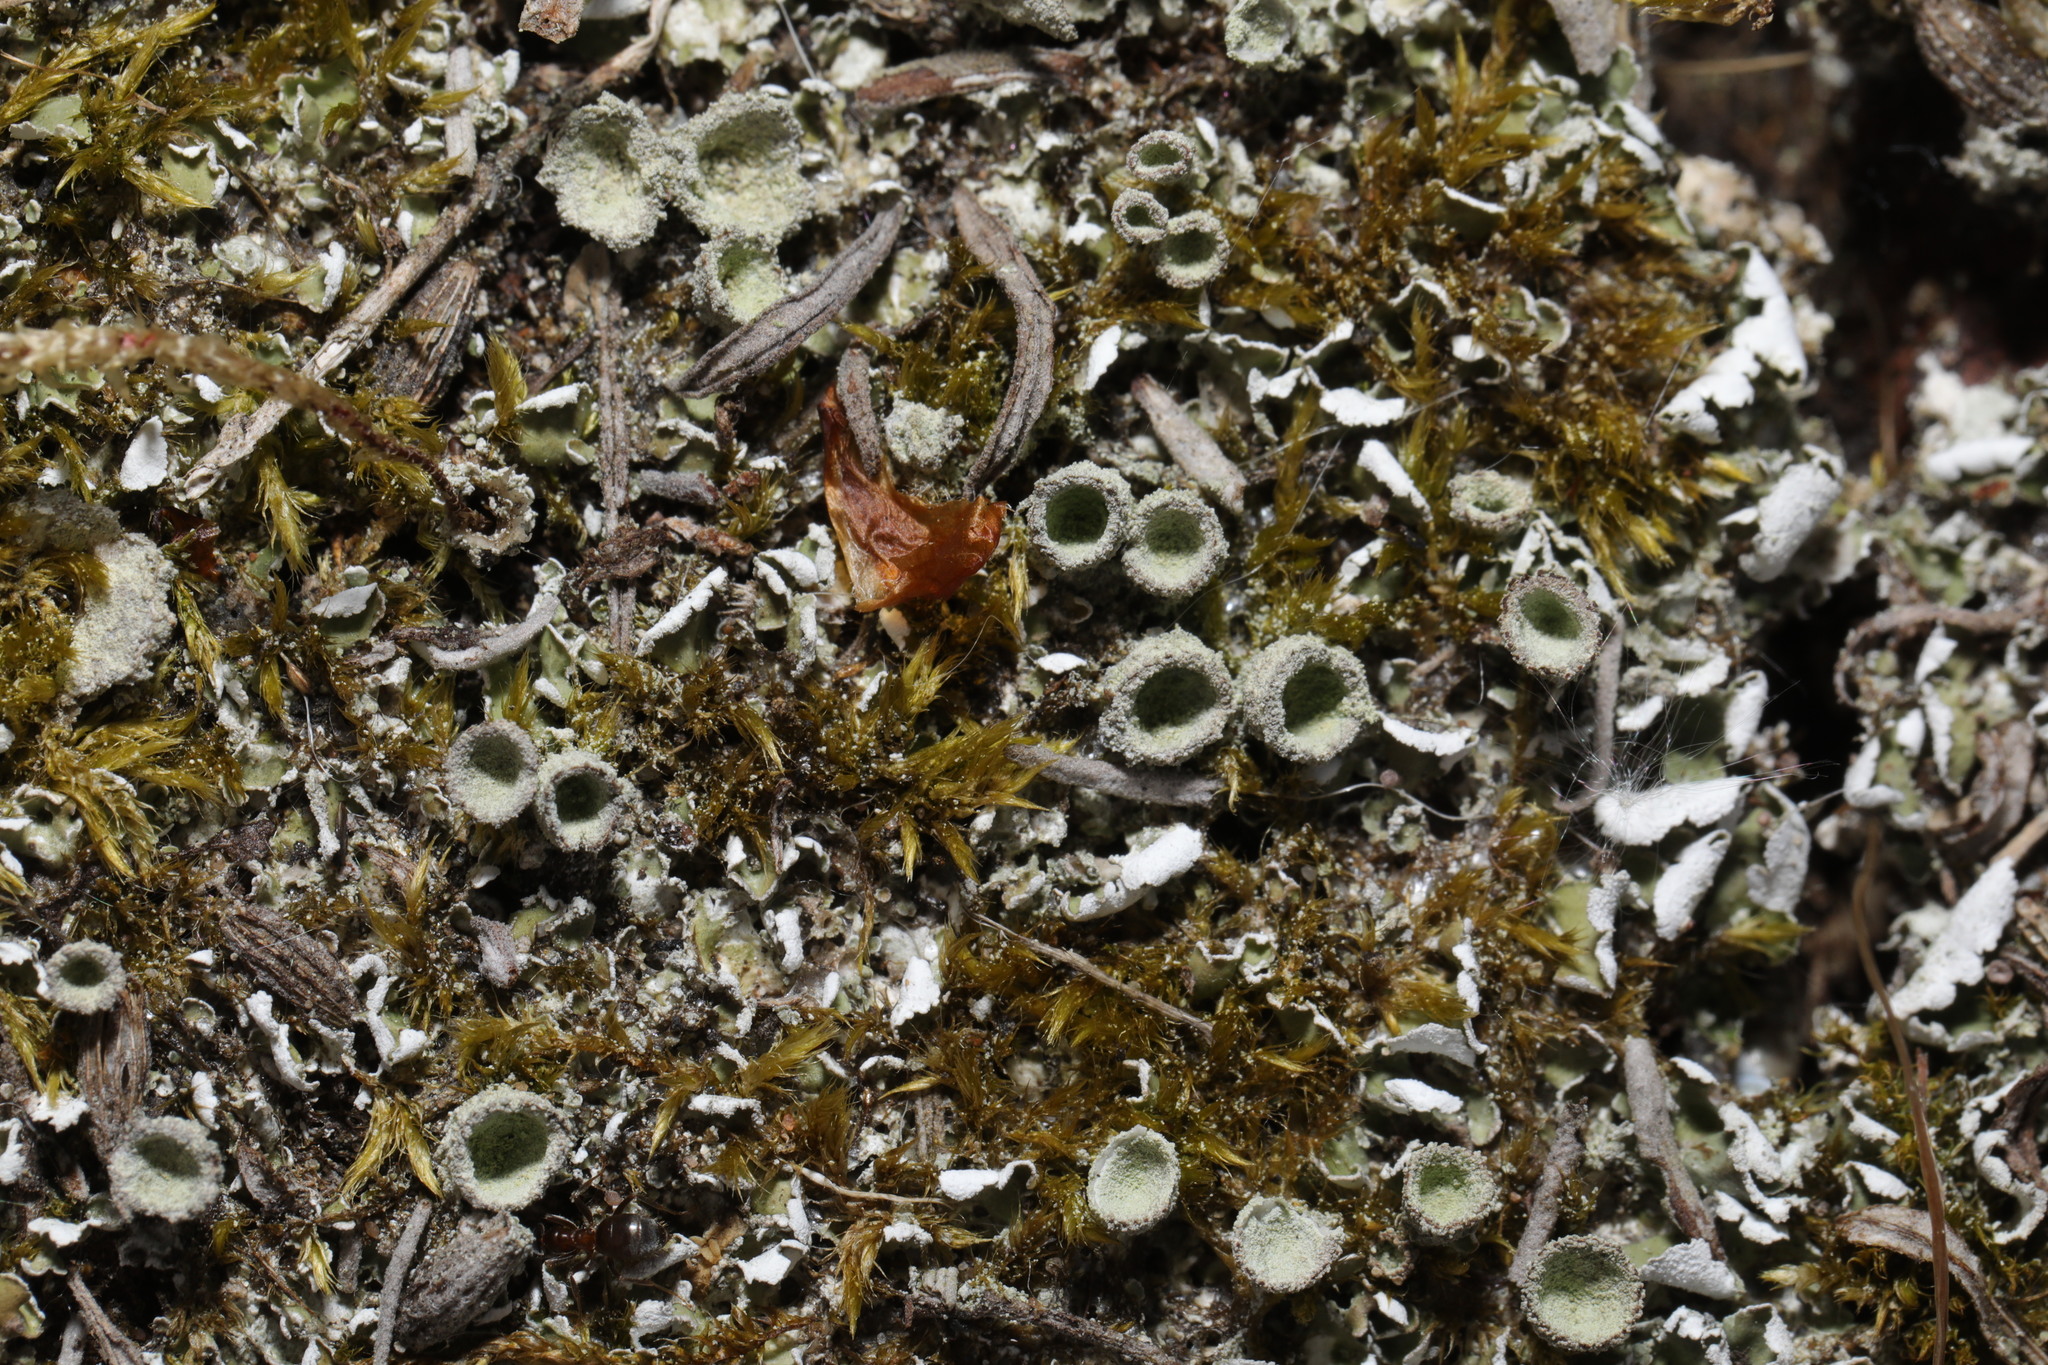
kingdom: Fungi
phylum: Ascomycota
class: Lecanoromycetes
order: Lecanorales
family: Cladoniaceae
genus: Cladonia
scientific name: Cladonia
